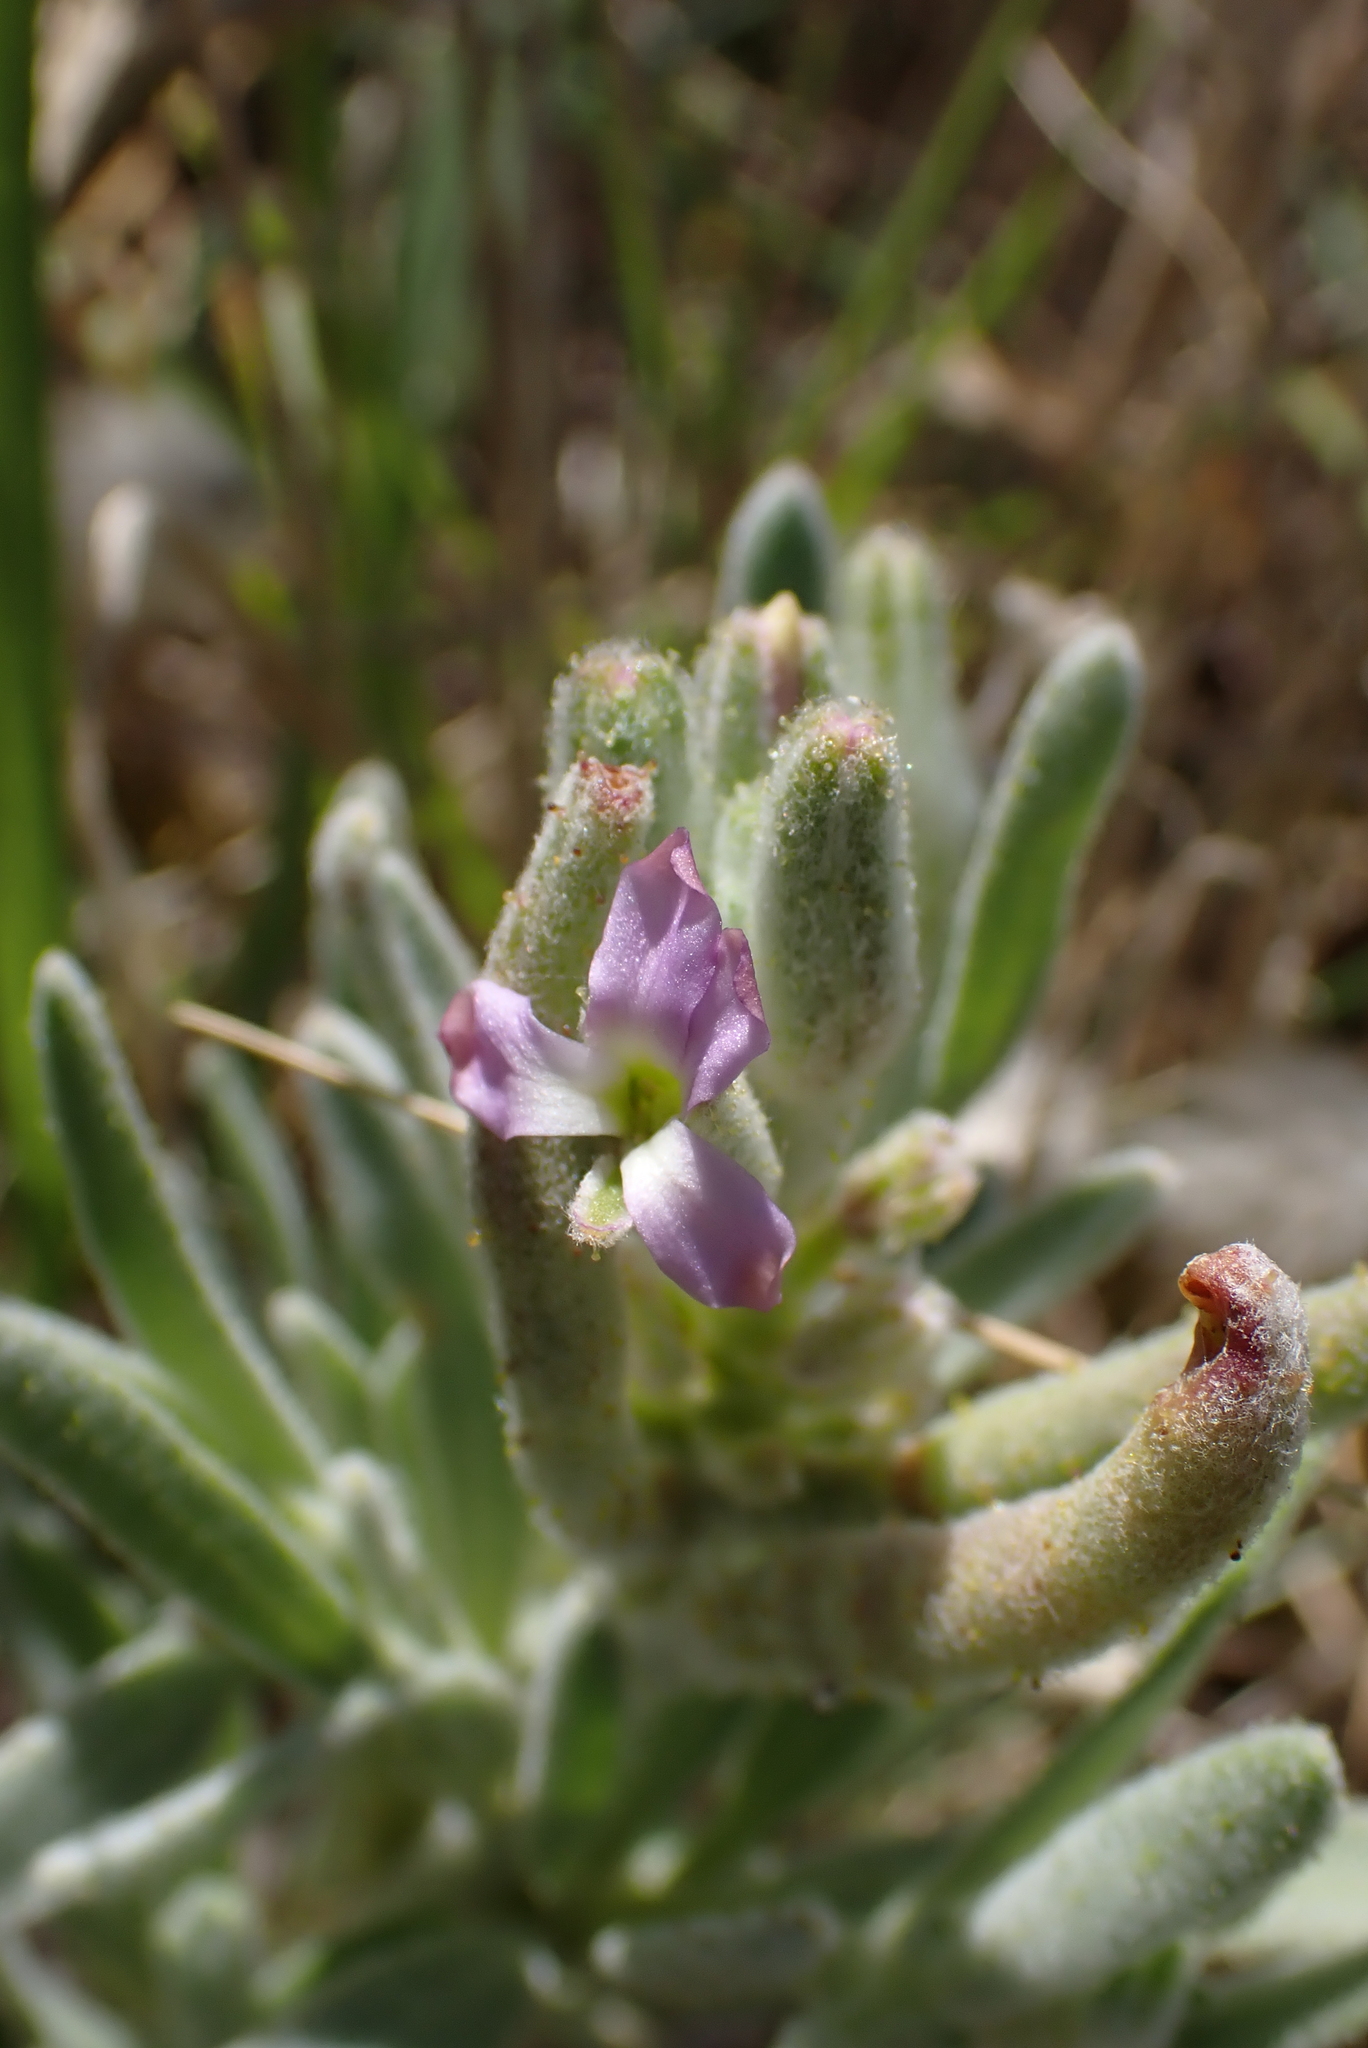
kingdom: Plantae
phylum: Tracheophyta
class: Magnoliopsida
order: Brassicales
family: Brassicaceae
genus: Matthiola
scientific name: Matthiola sinuata
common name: Sea stock
